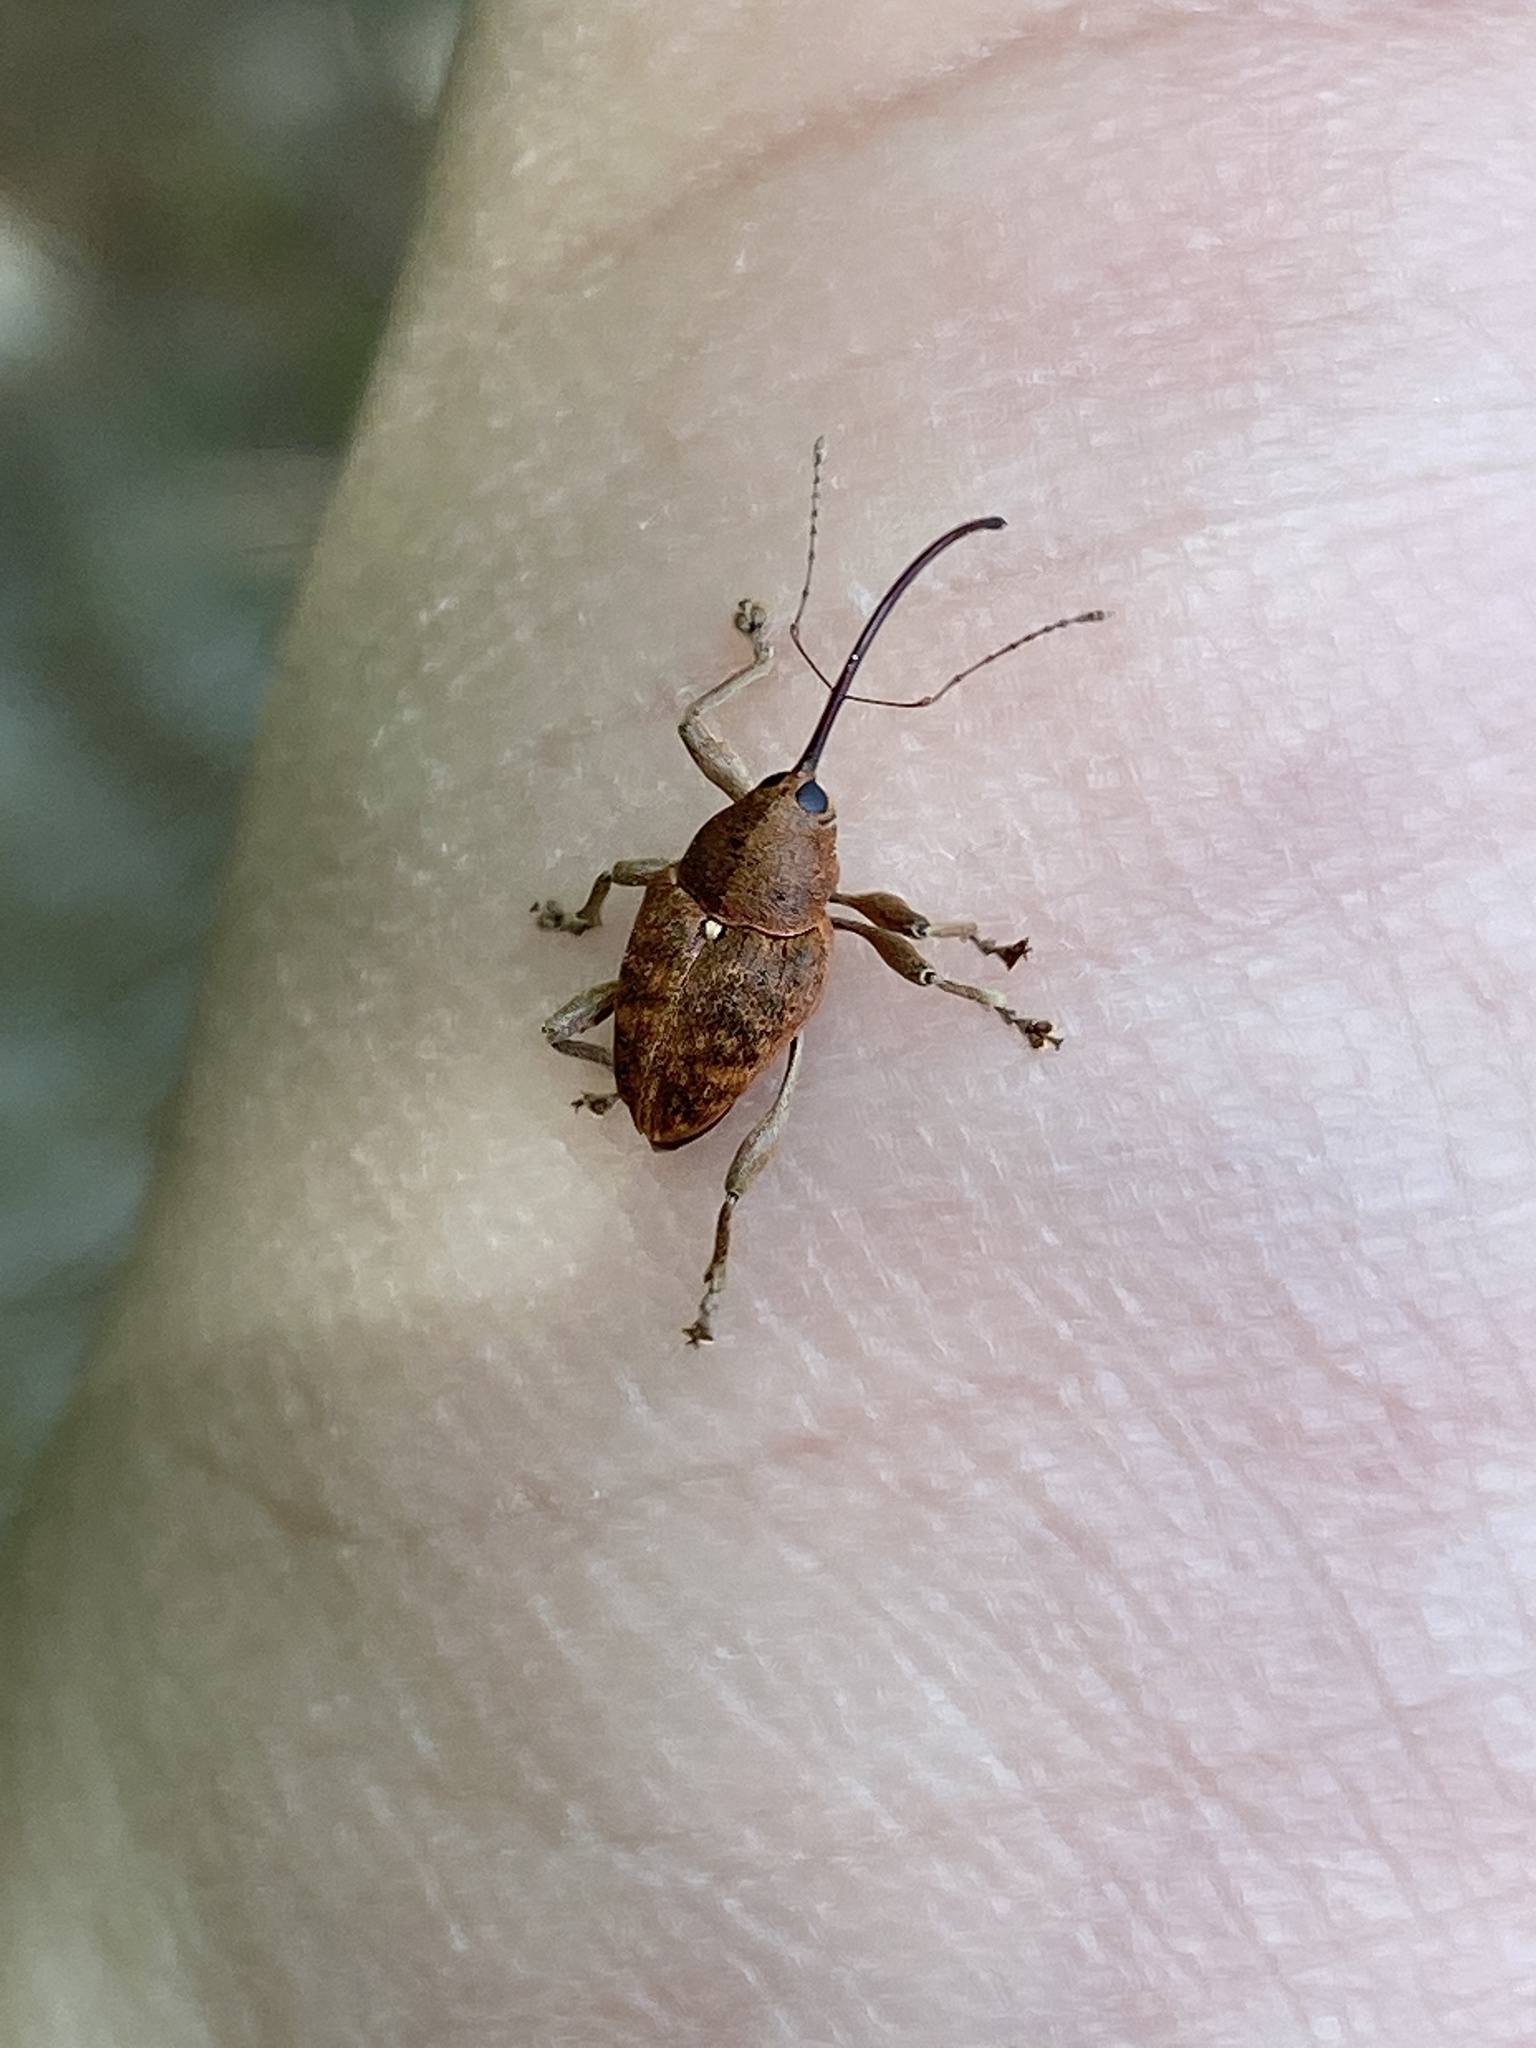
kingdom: Animalia
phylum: Arthropoda
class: Insecta
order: Coleoptera
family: Curculionidae
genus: Curculio
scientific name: Curculio glandium
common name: Acorn weevil
